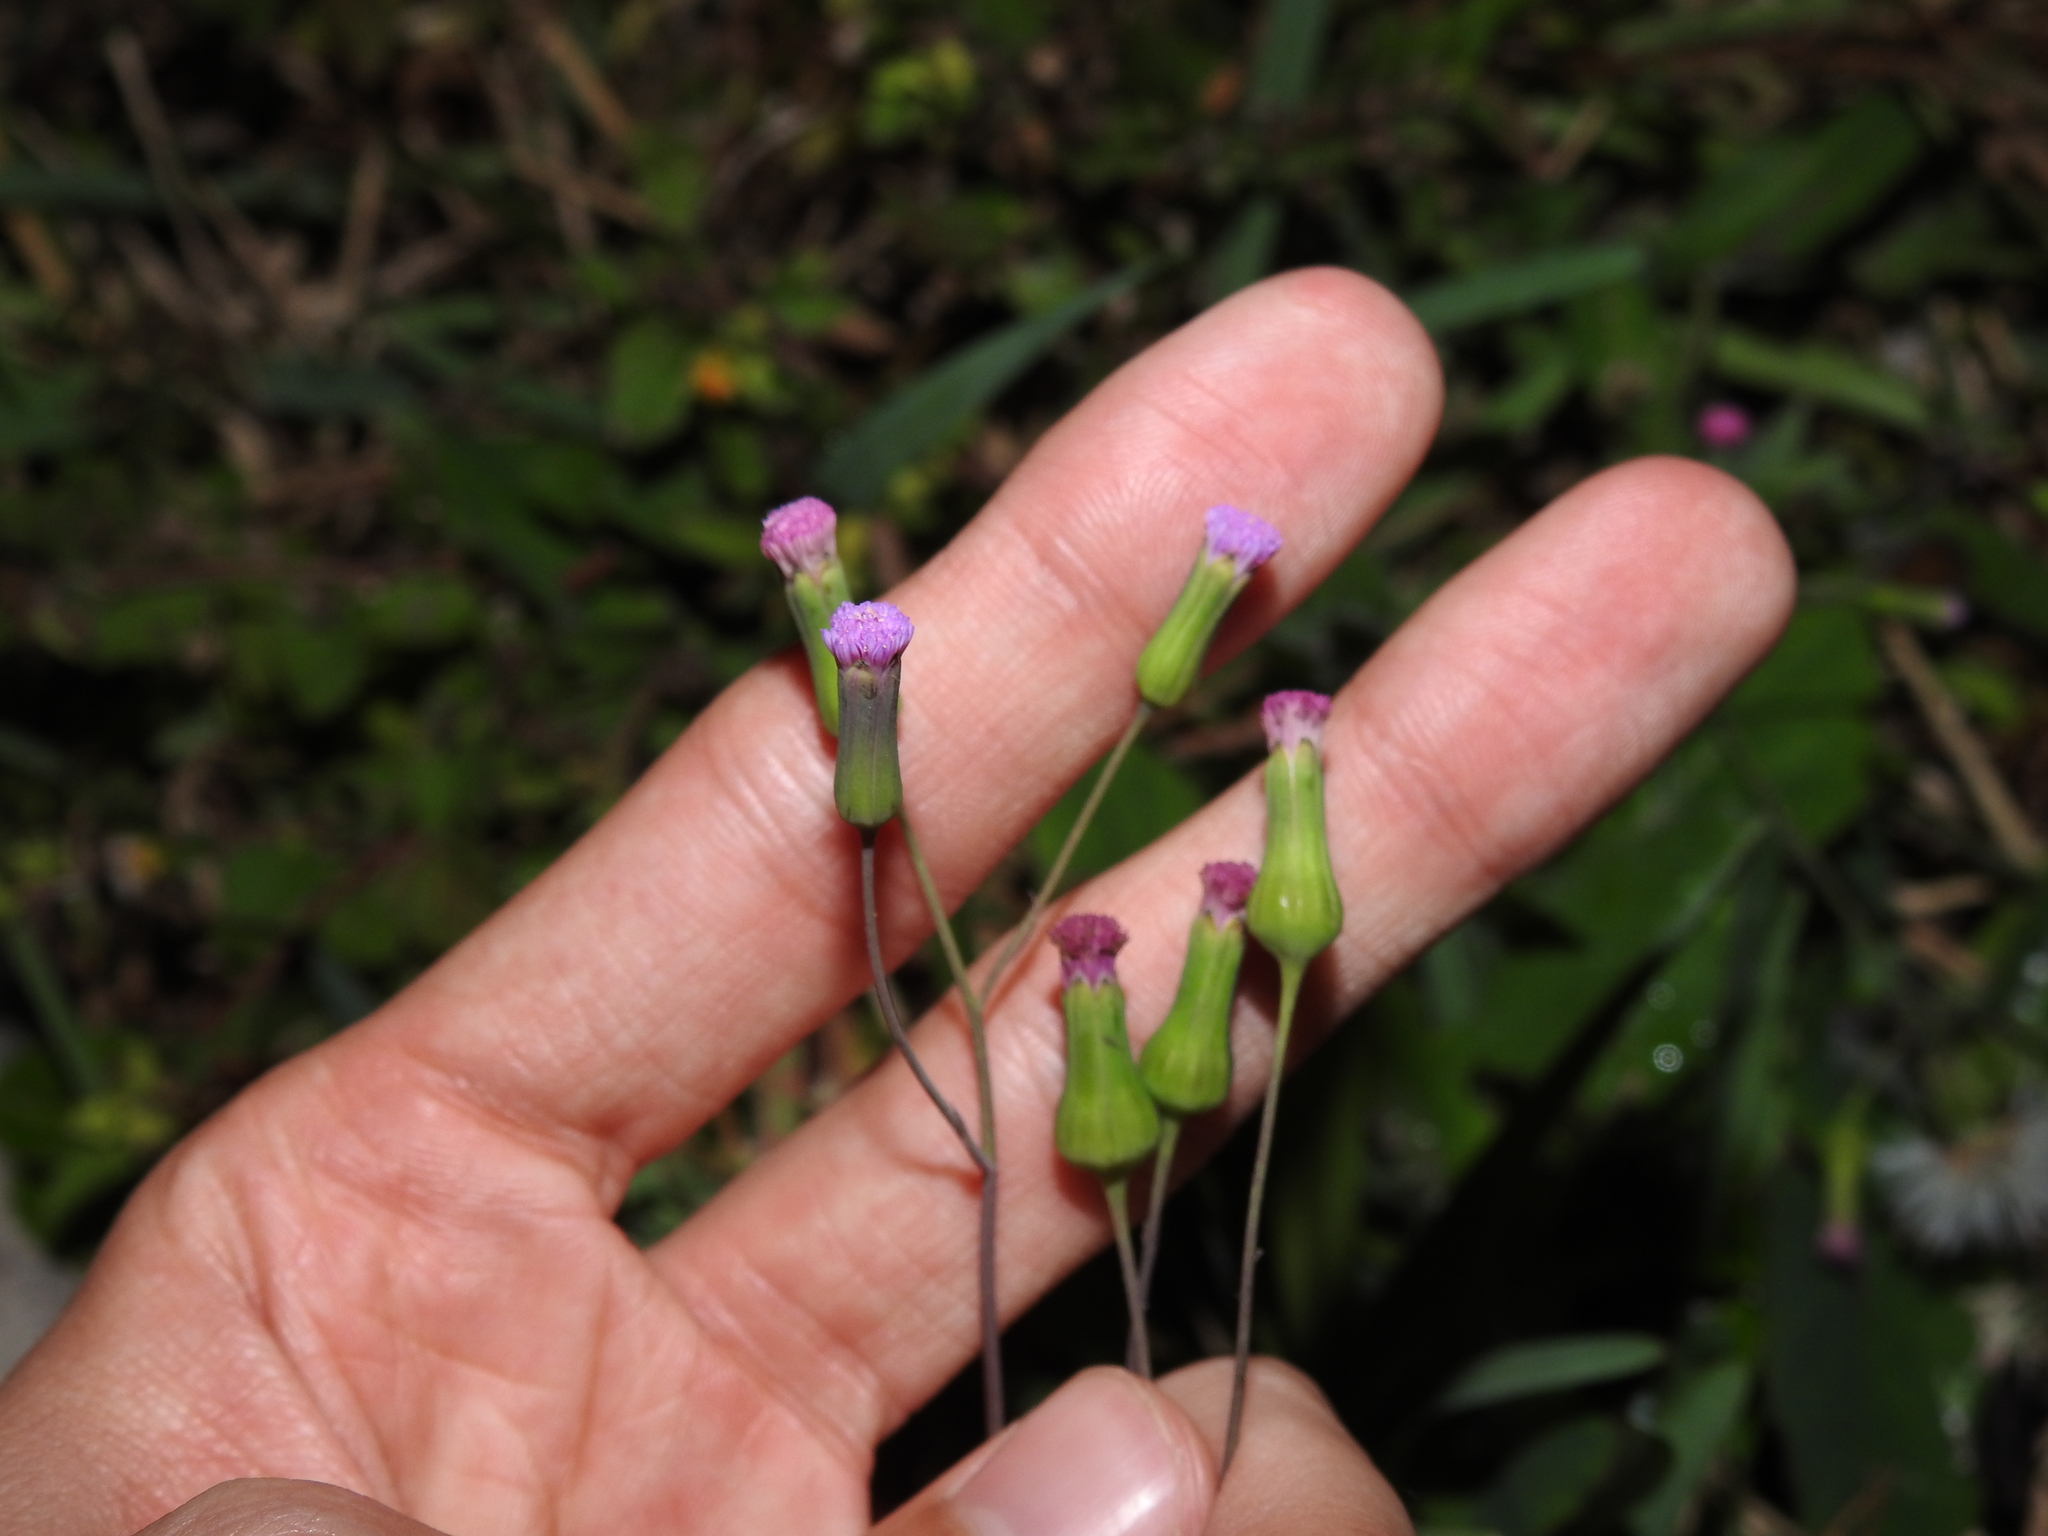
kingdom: Plantae
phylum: Tracheophyta
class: Magnoliopsida
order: Asterales
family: Asteraceae
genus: Emilia
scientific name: Emilia sonchifolia
